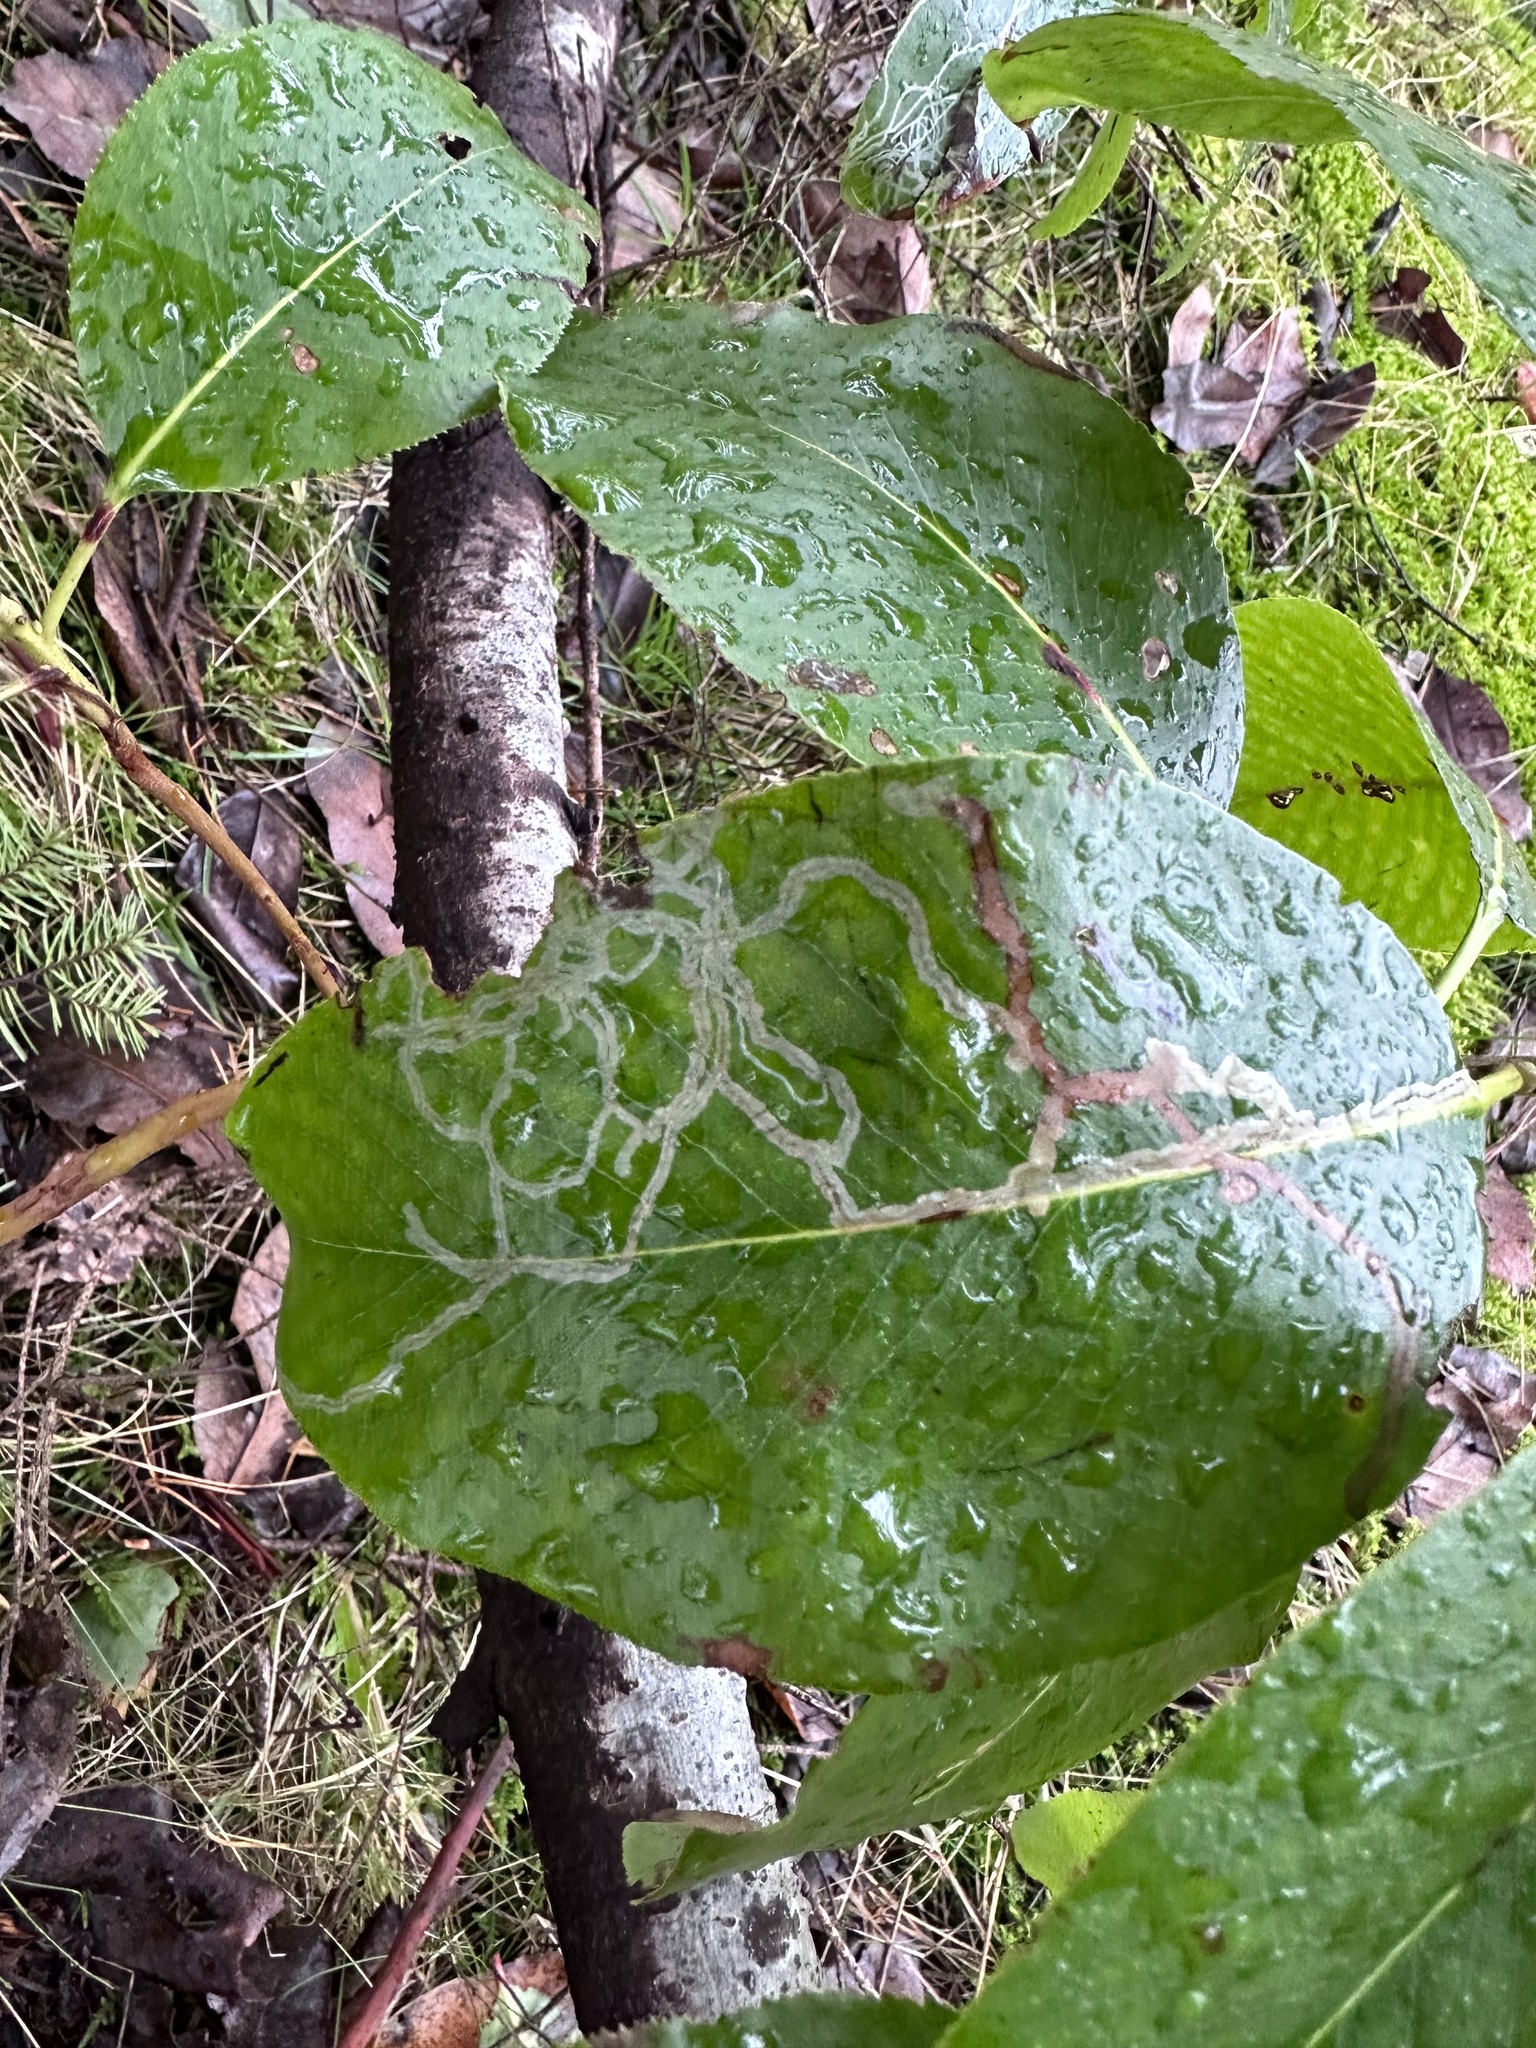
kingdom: Animalia
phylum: Arthropoda
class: Insecta
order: Lepidoptera
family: Gracillariidae
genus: Marmara
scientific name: Marmara arbutiella
